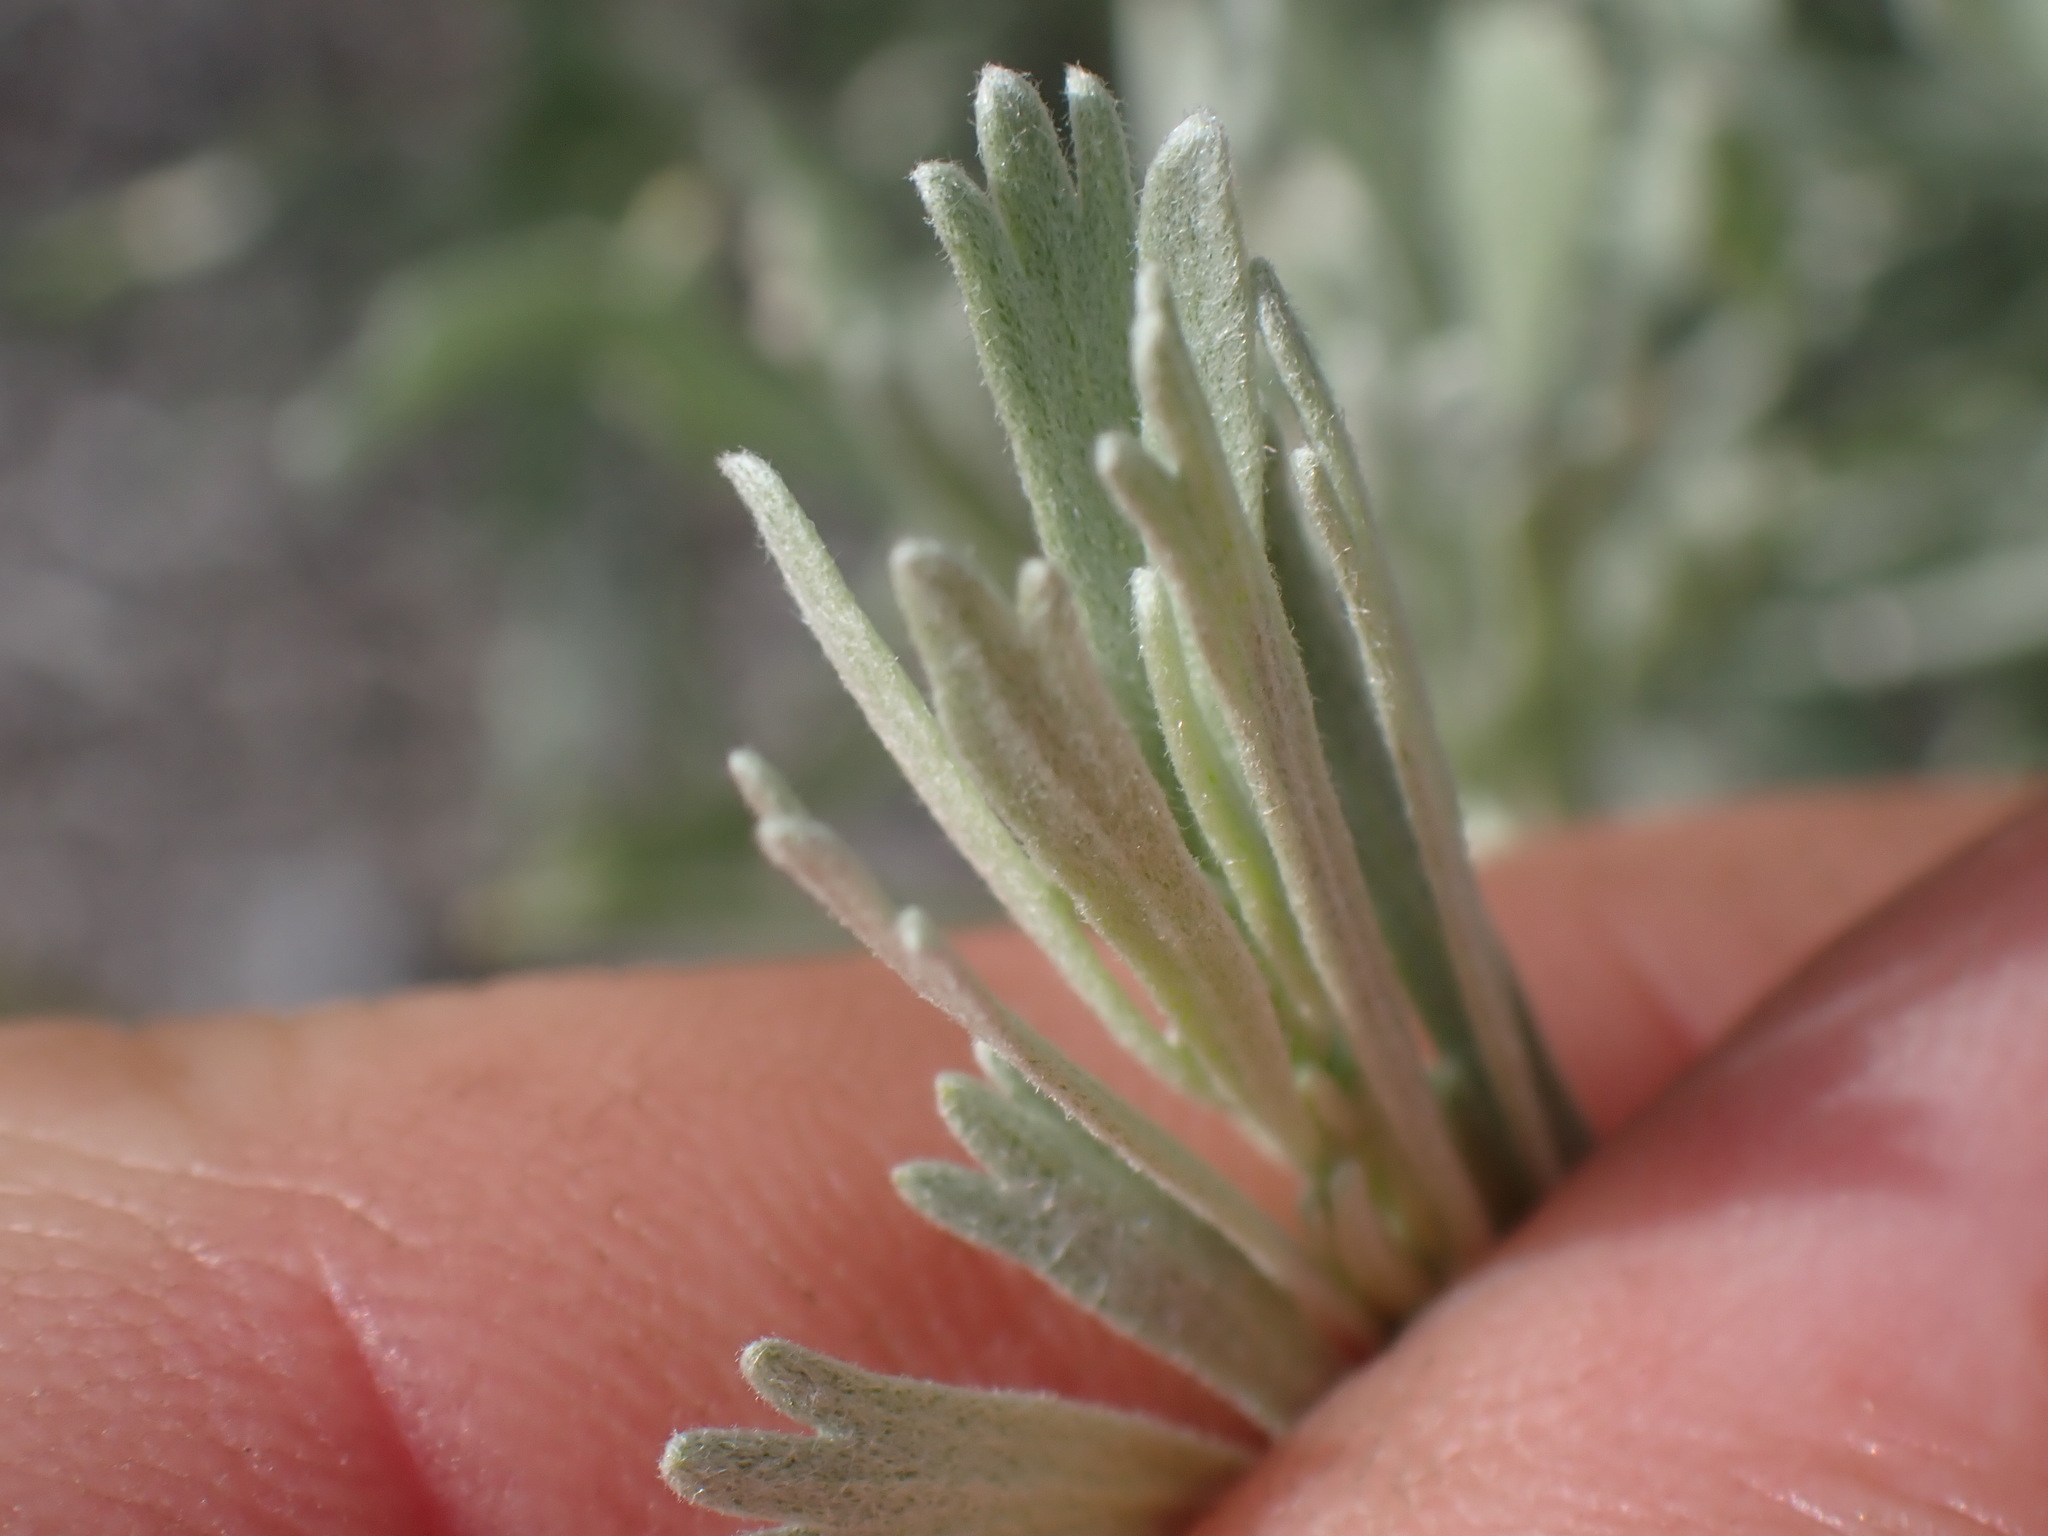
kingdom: Plantae
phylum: Tracheophyta
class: Magnoliopsida
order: Asterales
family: Asteraceae
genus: Artemisia
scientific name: Artemisia tridentata
